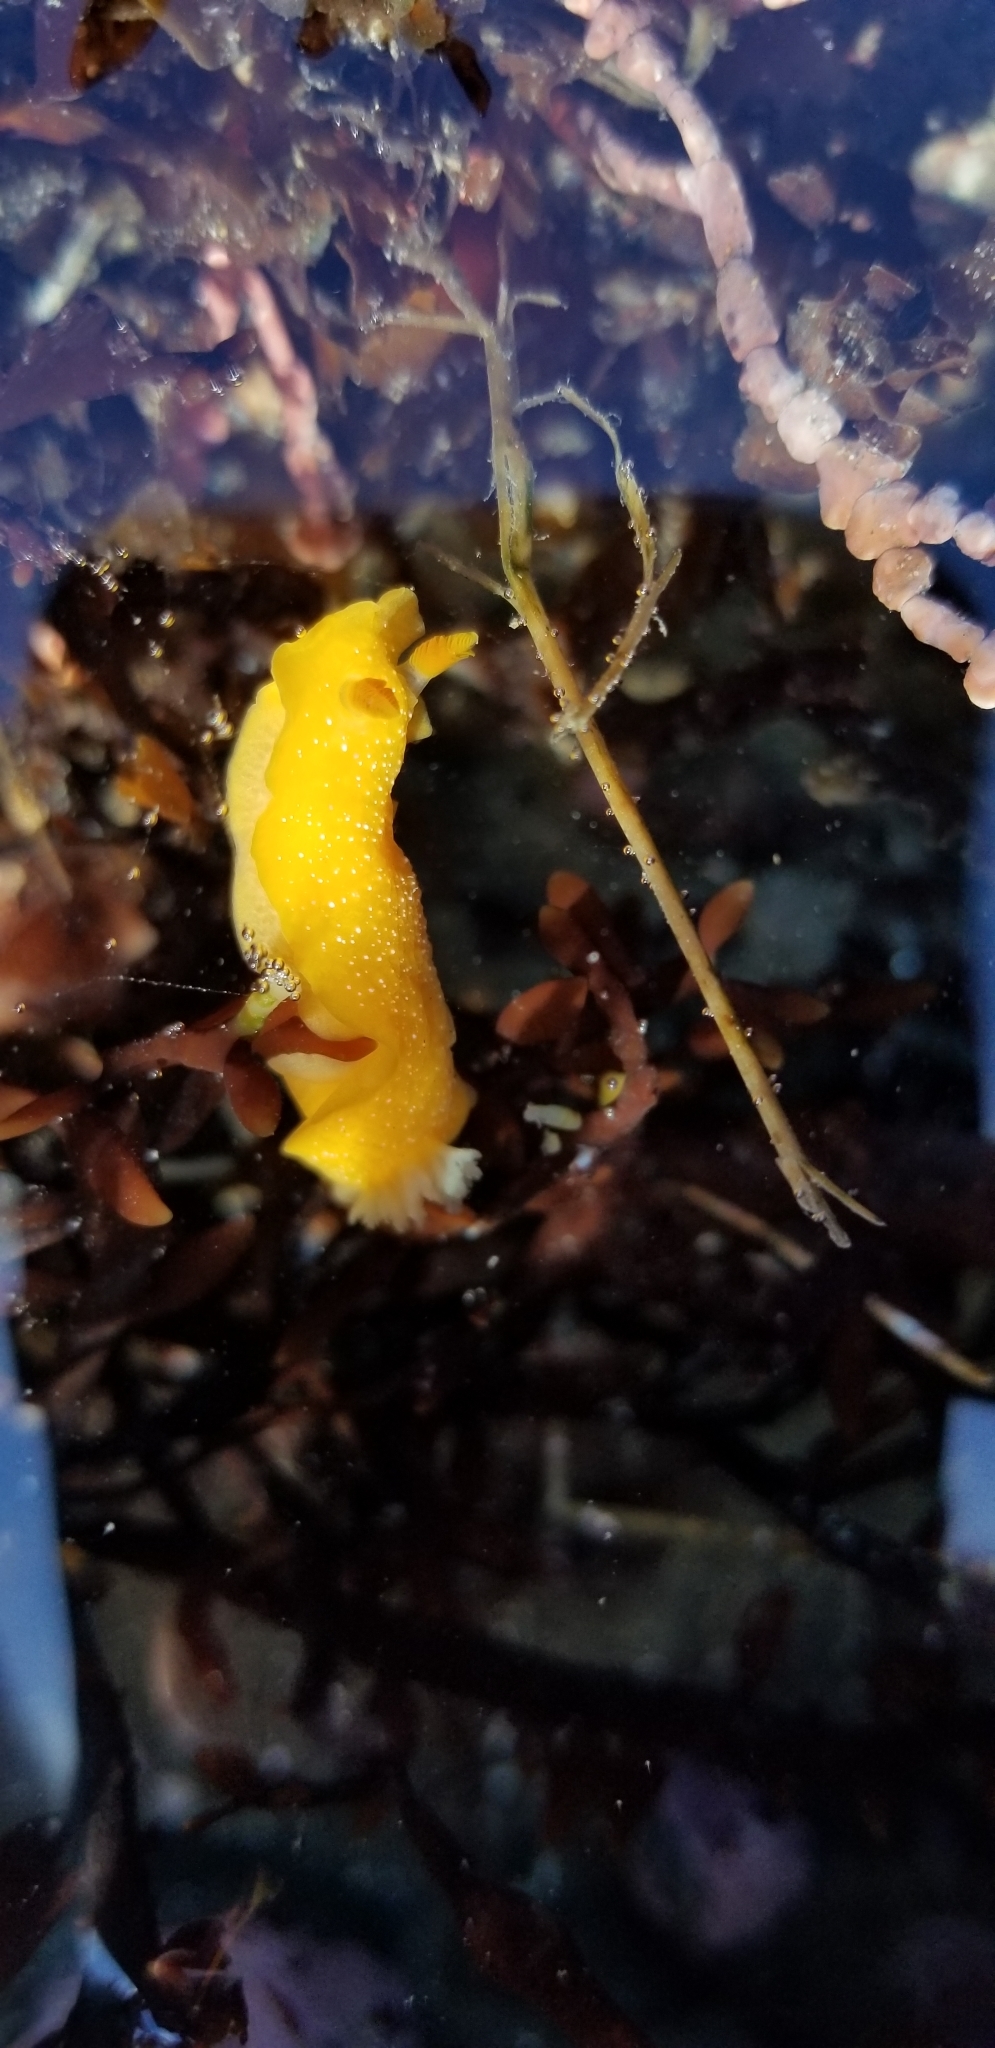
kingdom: Animalia
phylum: Mollusca
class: Gastropoda
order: Nudibranchia
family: Dendrodorididae
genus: Doriopsilla
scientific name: Doriopsilla albopunctata
